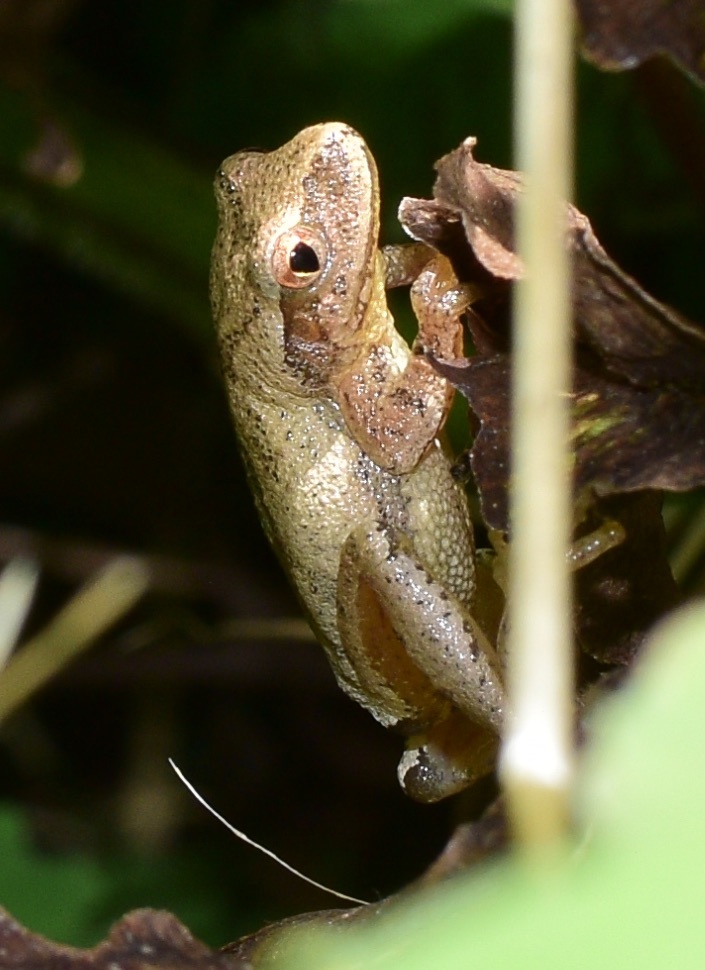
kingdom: Animalia
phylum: Chordata
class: Amphibia
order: Anura
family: Hylidae
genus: Pseudacris
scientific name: Pseudacris crucifer
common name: Spring peeper
